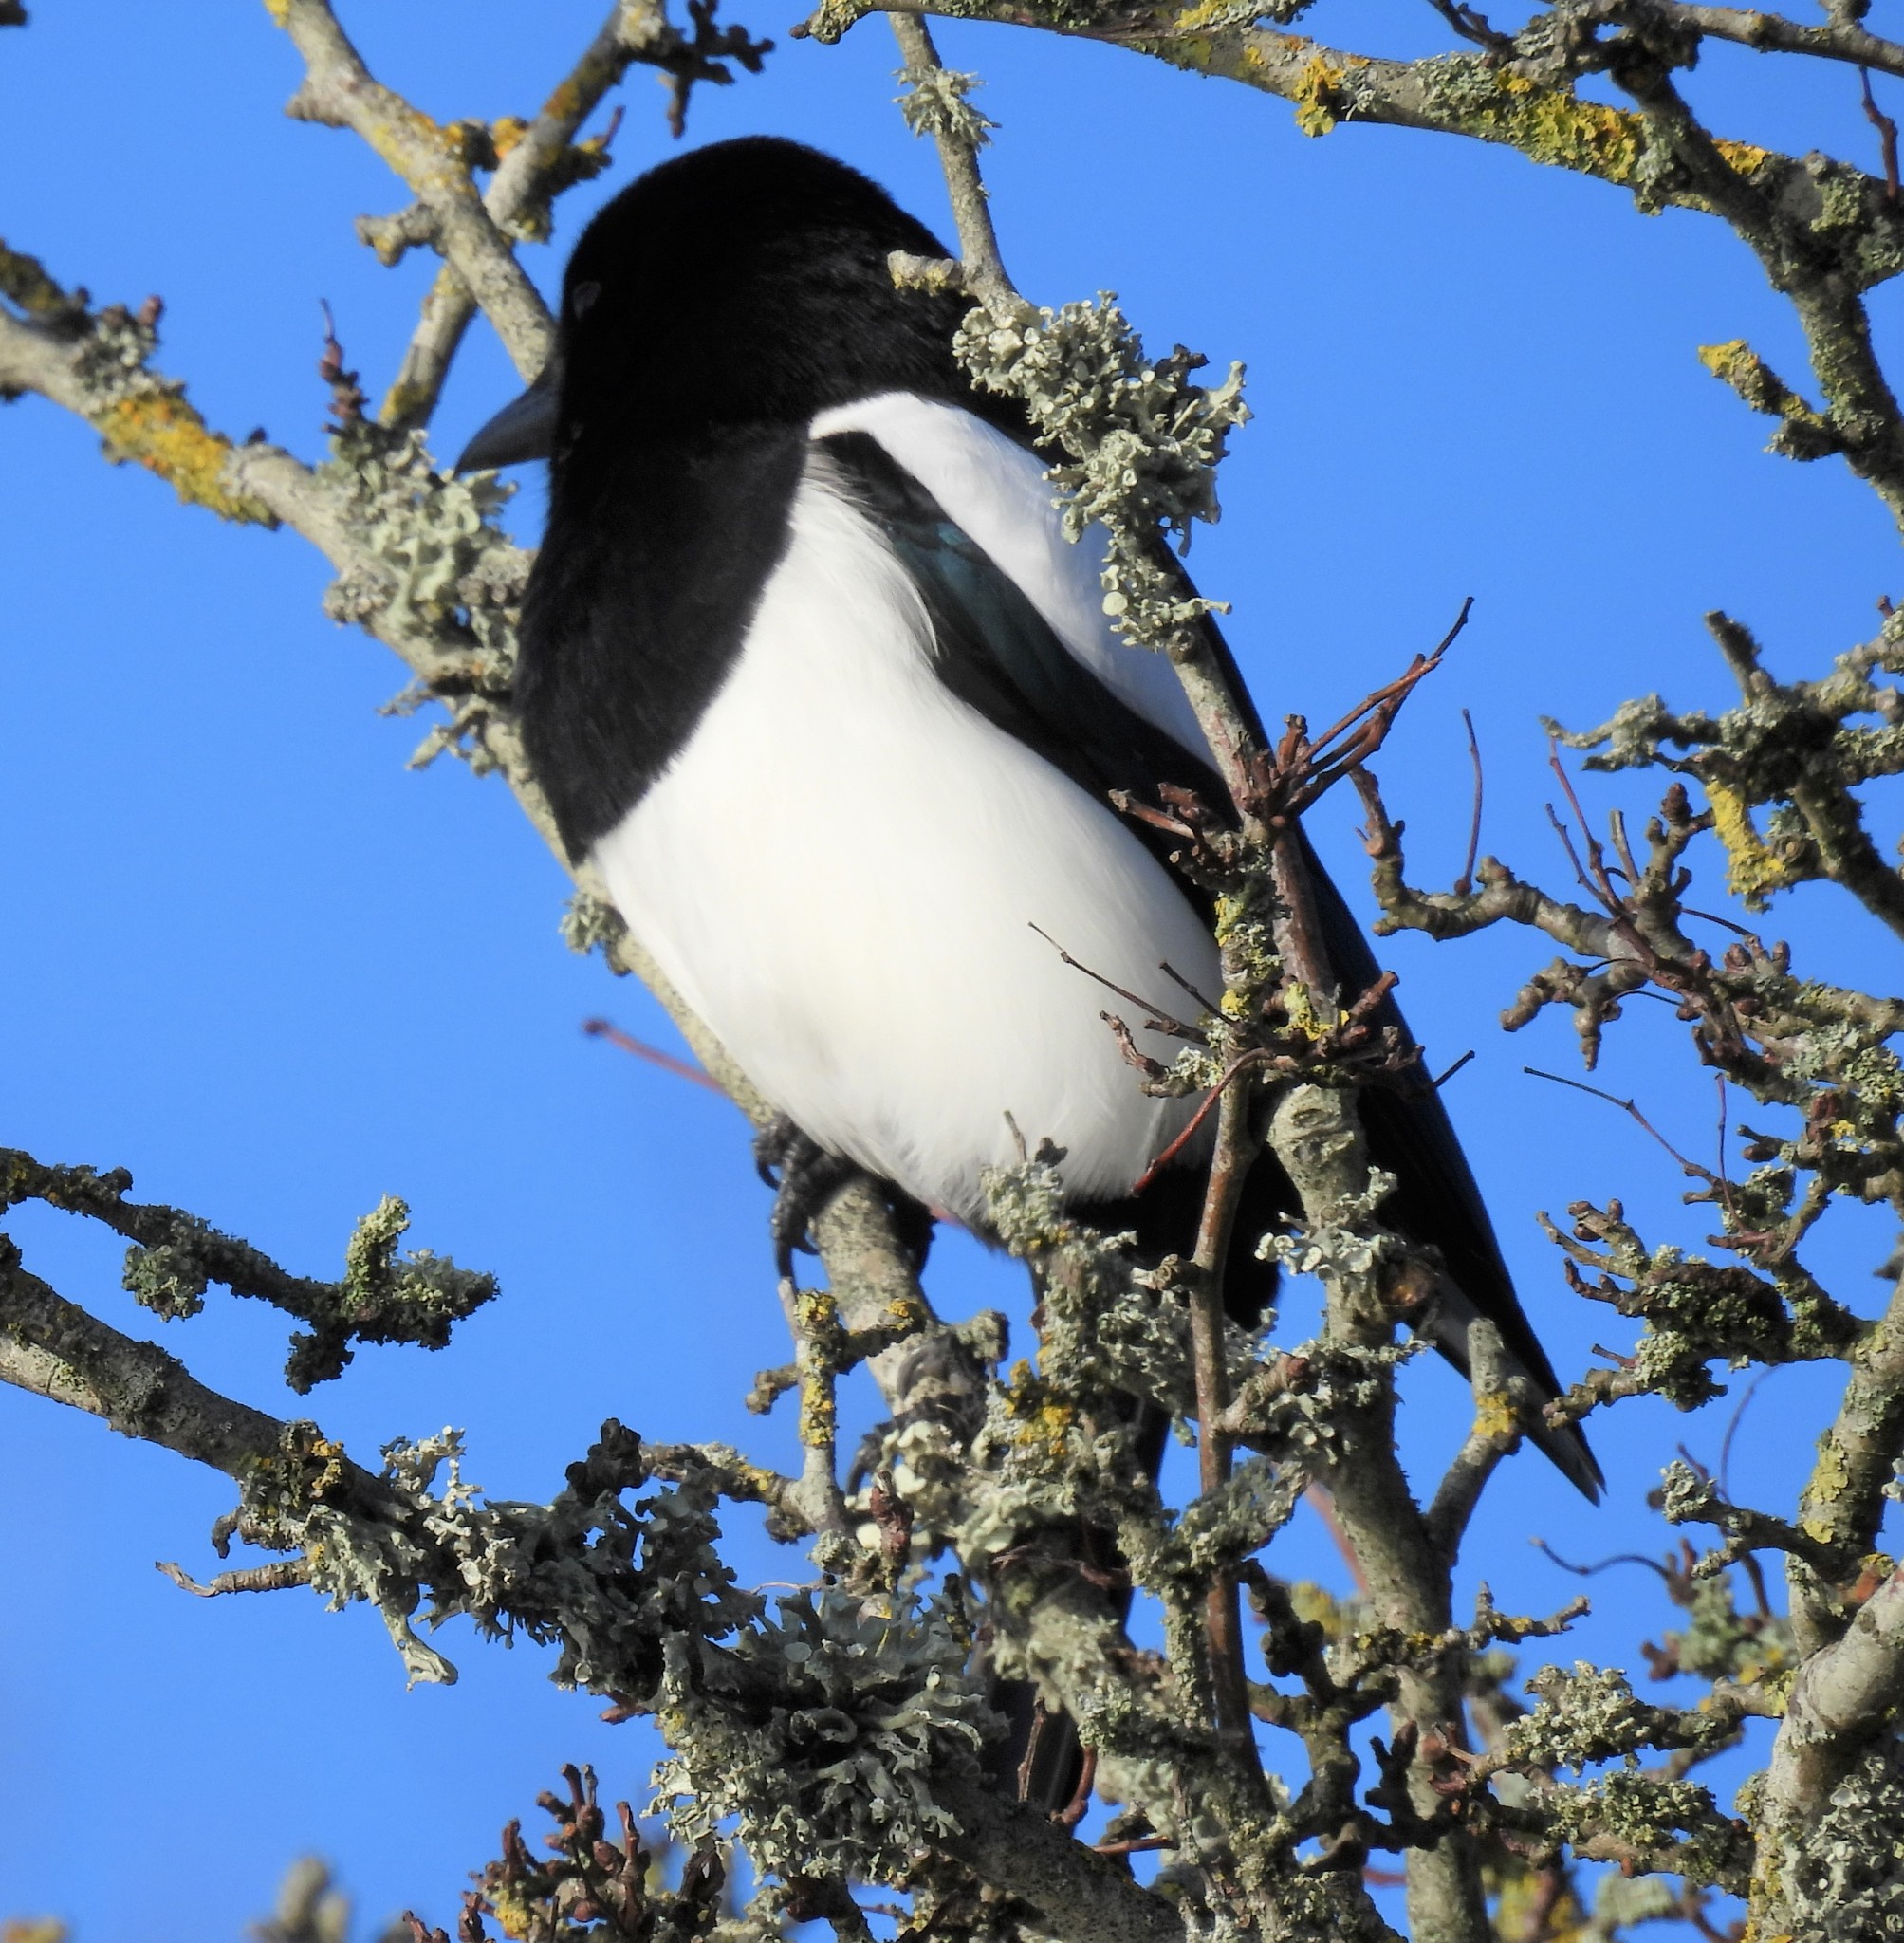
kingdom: Animalia
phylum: Chordata
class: Aves
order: Passeriformes
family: Corvidae
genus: Pica
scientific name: Pica pica
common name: Eurasian magpie
